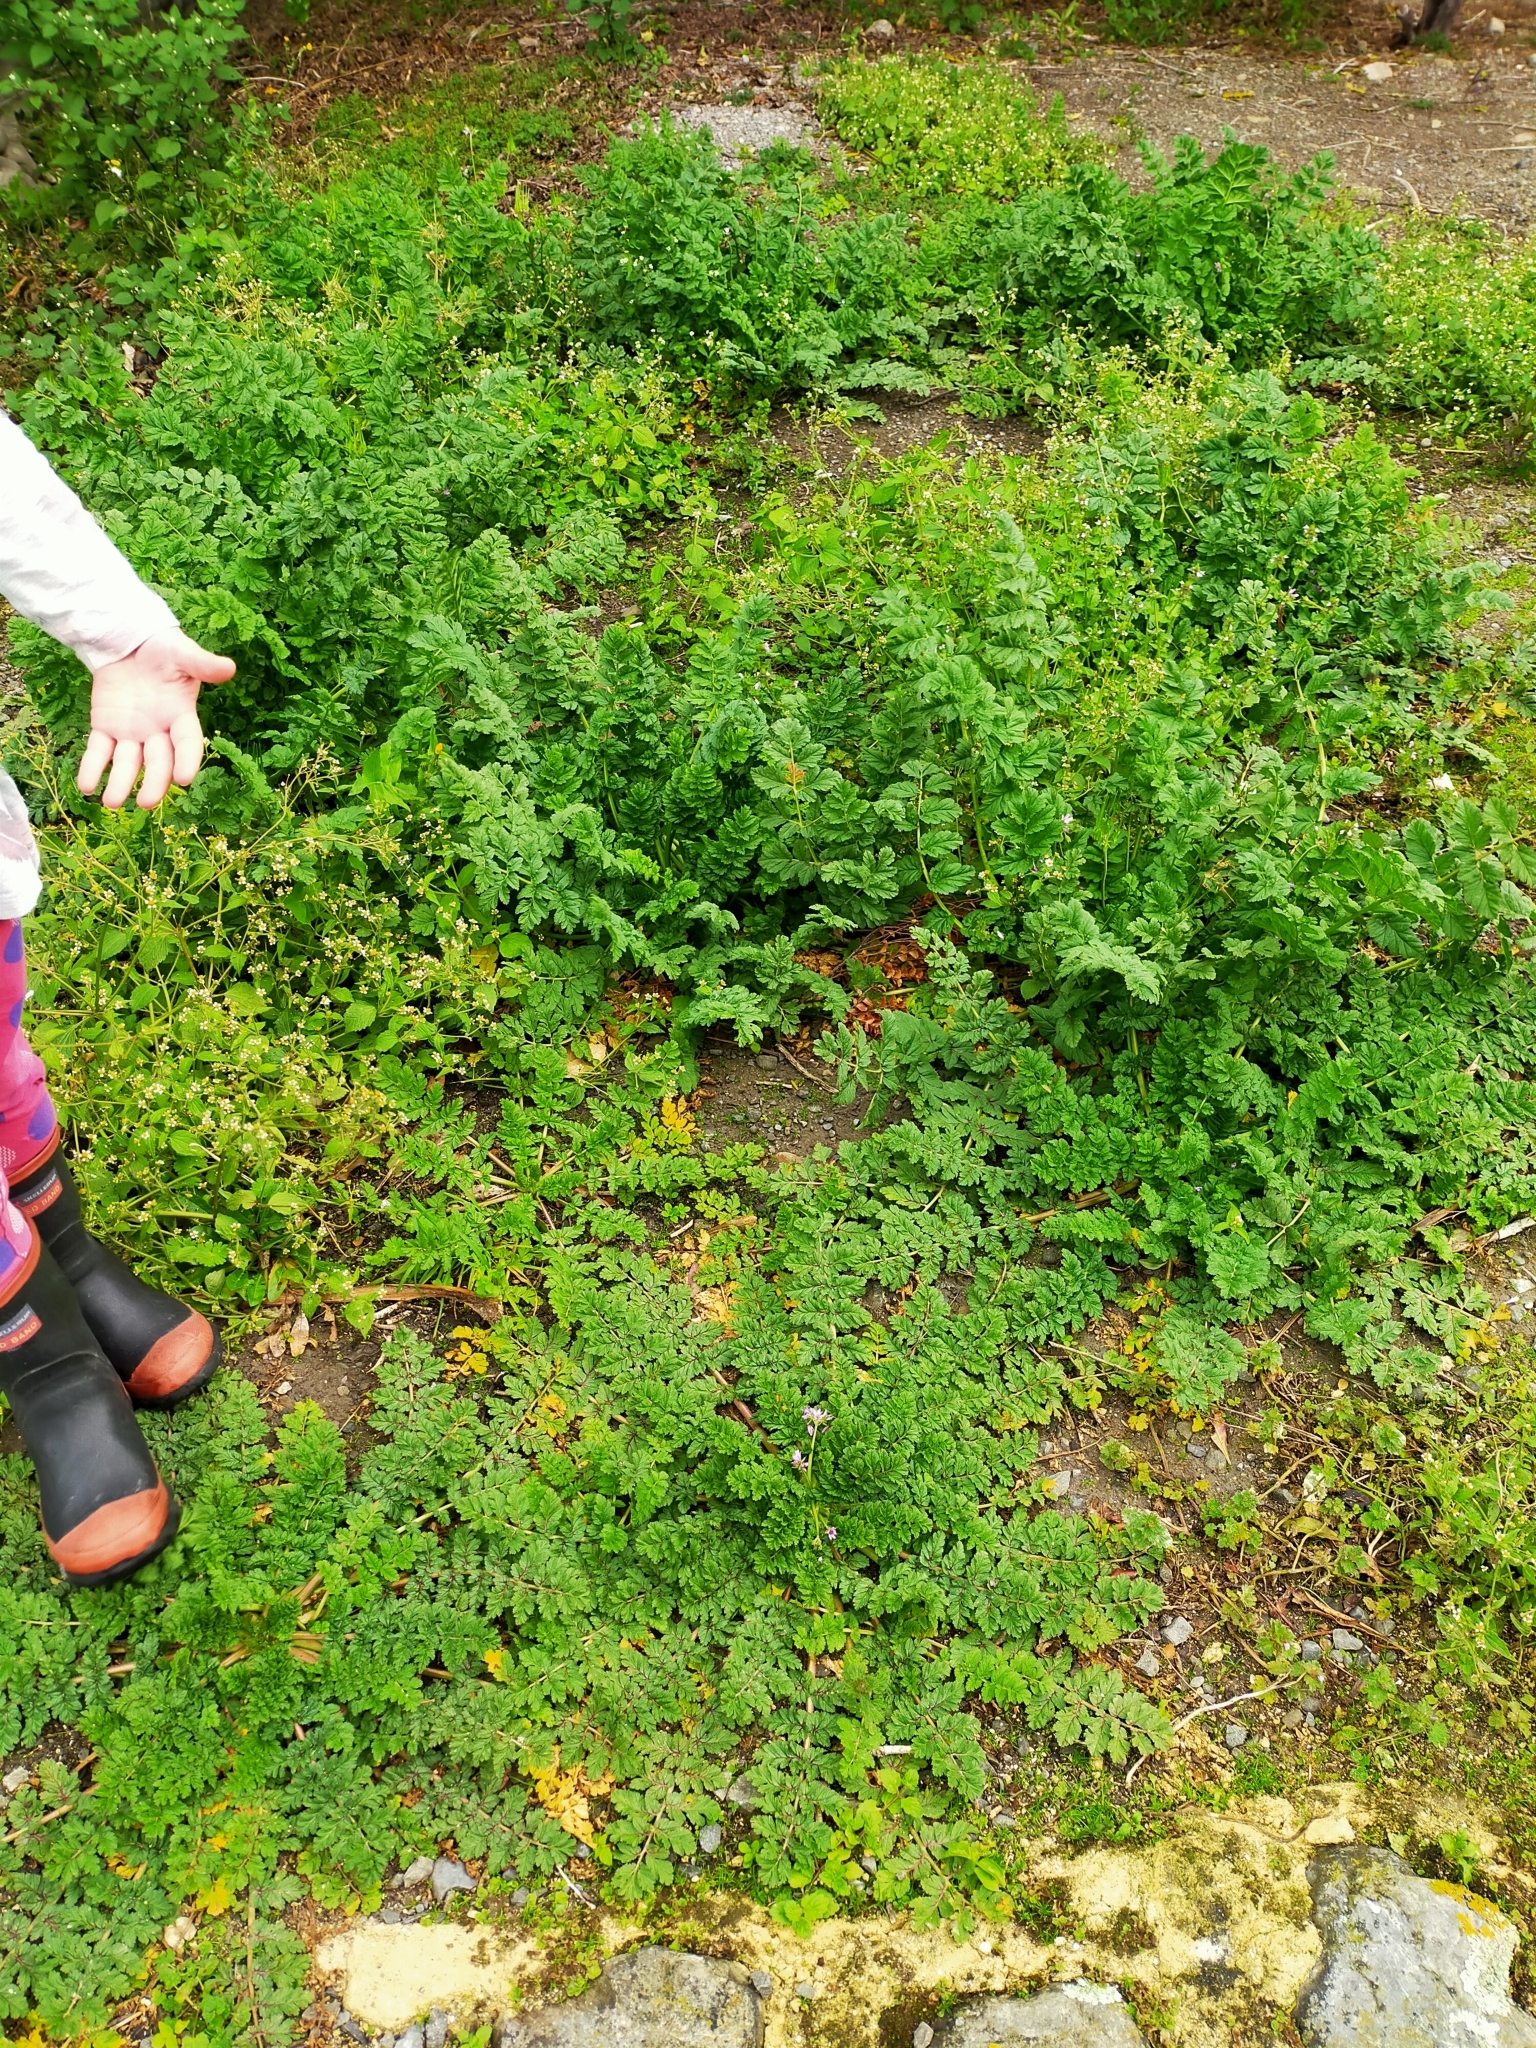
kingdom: Plantae
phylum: Tracheophyta
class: Magnoliopsida
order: Geraniales
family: Geraniaceae
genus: Erodium
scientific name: Erodium moschatum
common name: Musk stork's-bill
